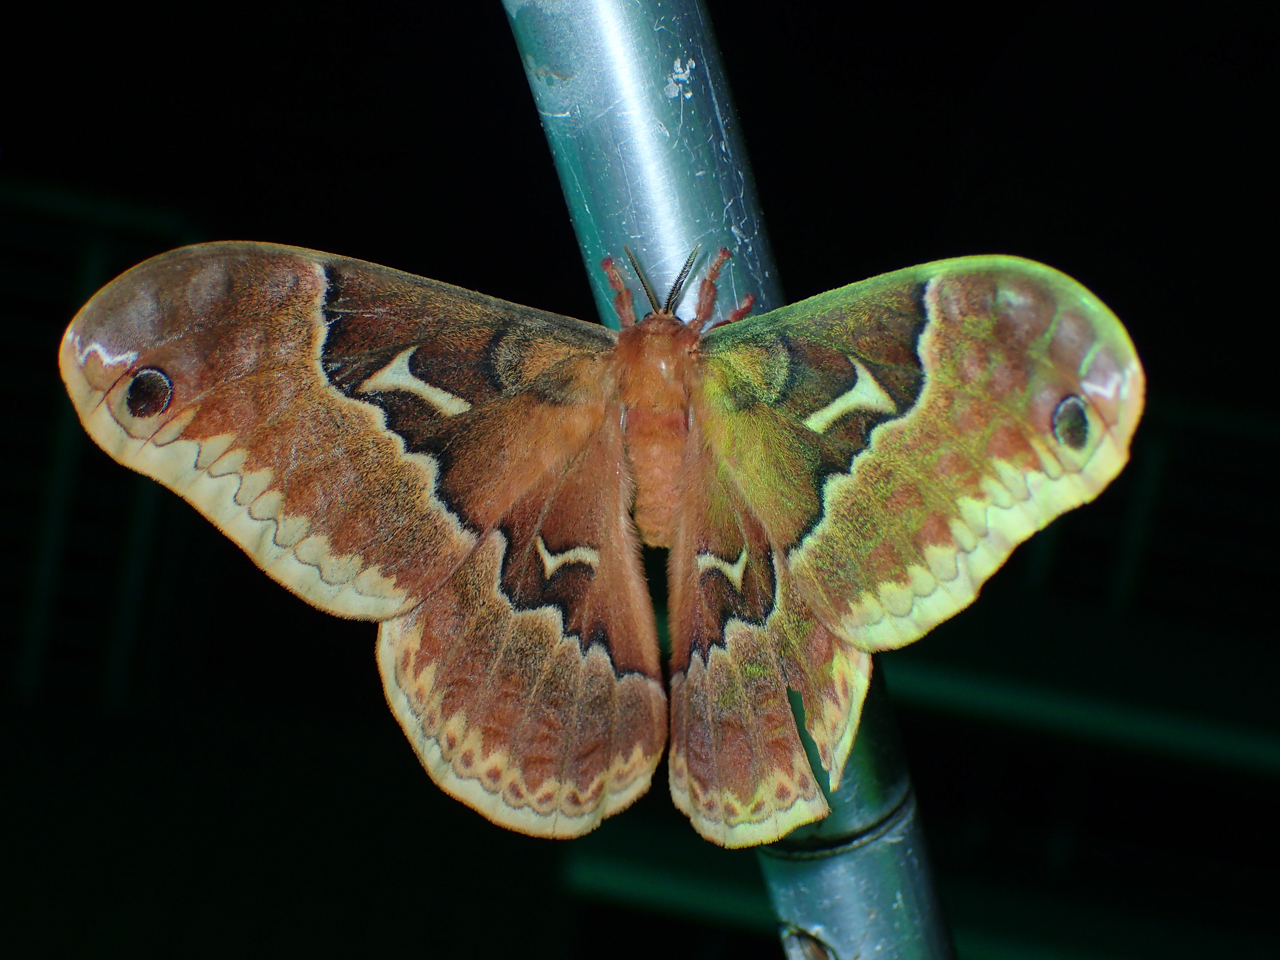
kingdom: Animalia
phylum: Arthropoda
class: Insecta
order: Lepidoptera
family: Saturniidae
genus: Callosamia
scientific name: Callosamia angulifera
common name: Tulip tree silkmoth
